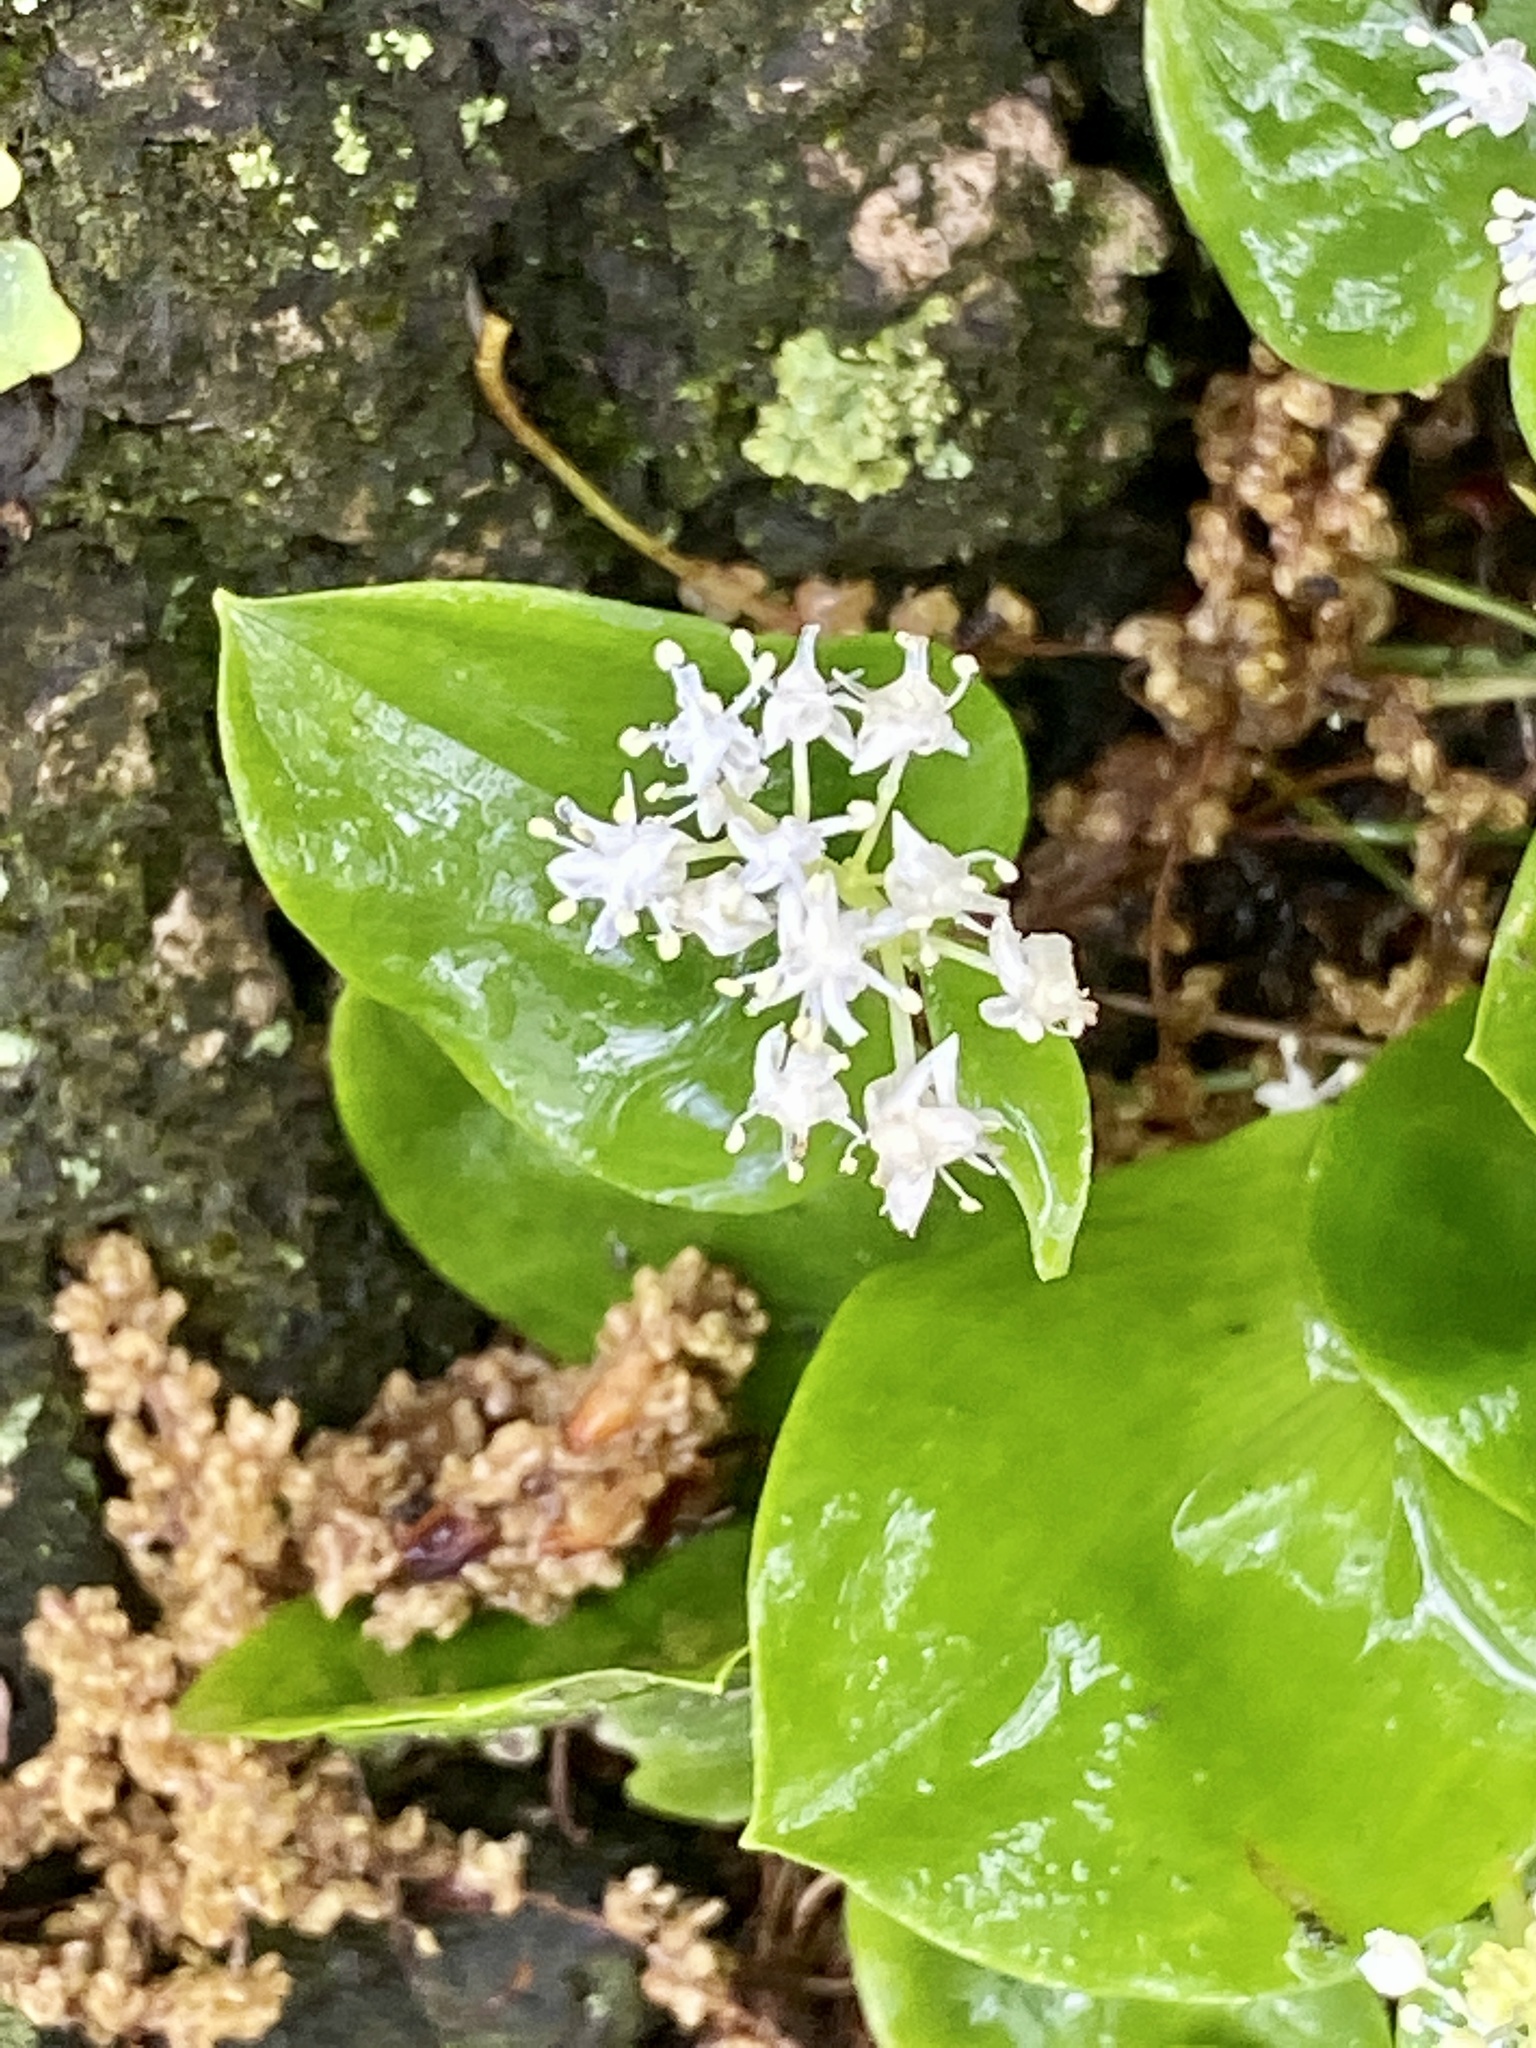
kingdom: Plantae
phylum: Tracheophyta
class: Liliopsida
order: Asparagales
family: Asparagaceae
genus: Maianthemum
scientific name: Maianthemum canadense
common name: False lily-of-the-valley
